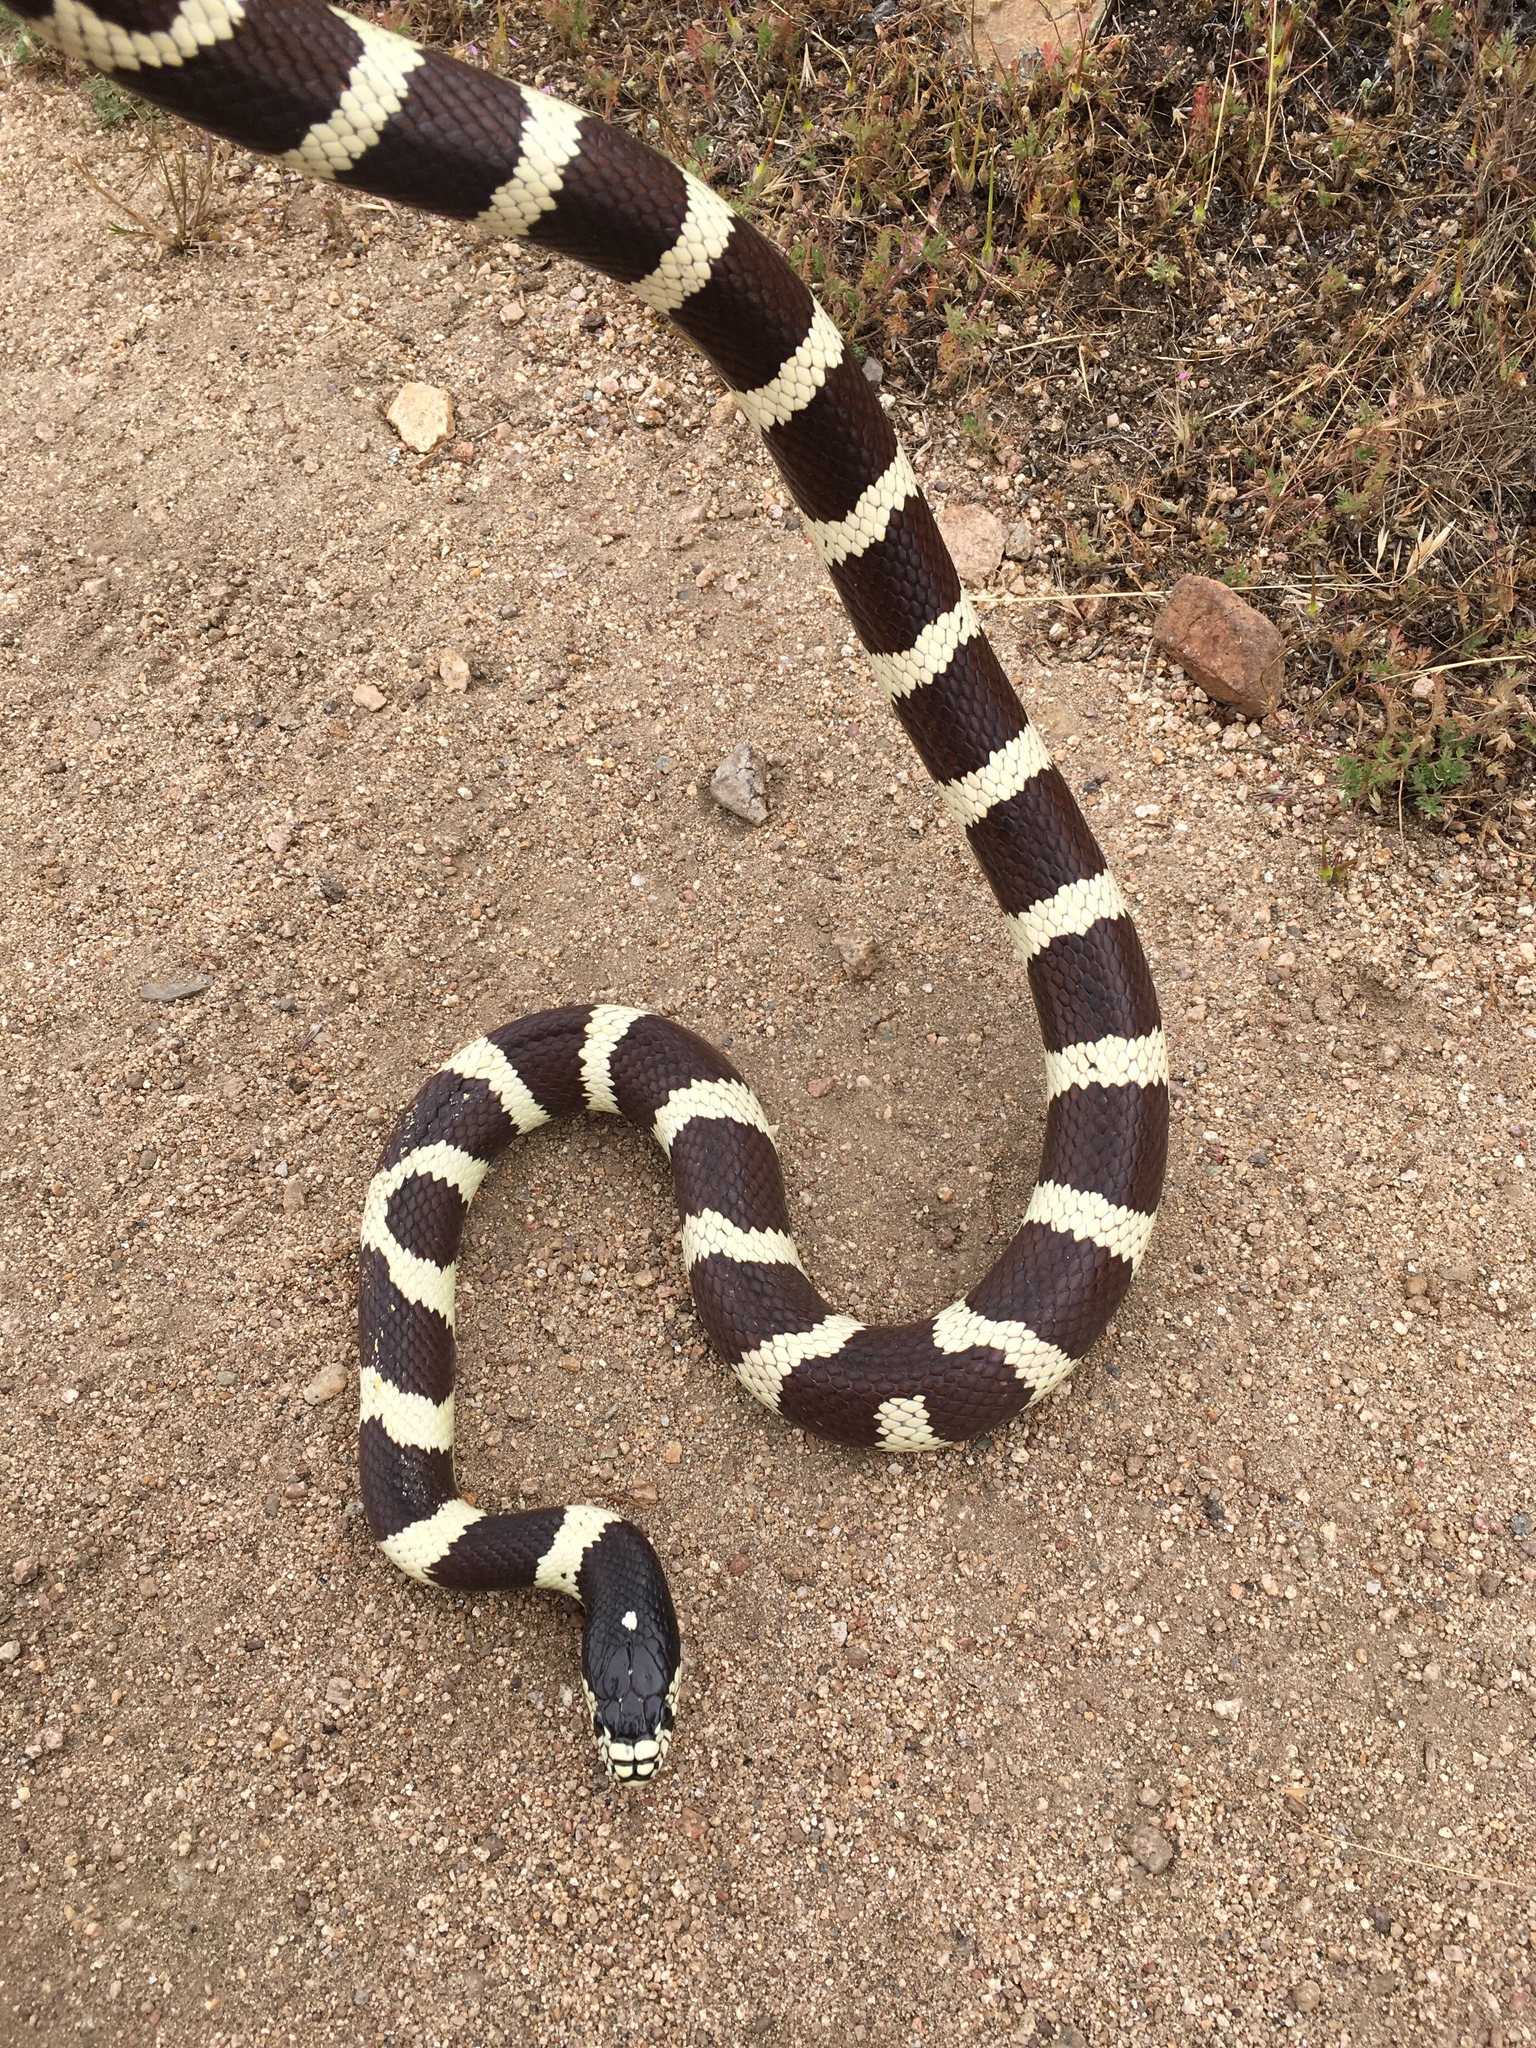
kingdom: Animalia
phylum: Chordata
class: Squamata
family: Colubridae
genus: Lampropeltis
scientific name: Lampropeltis californiae
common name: California kingsnake
